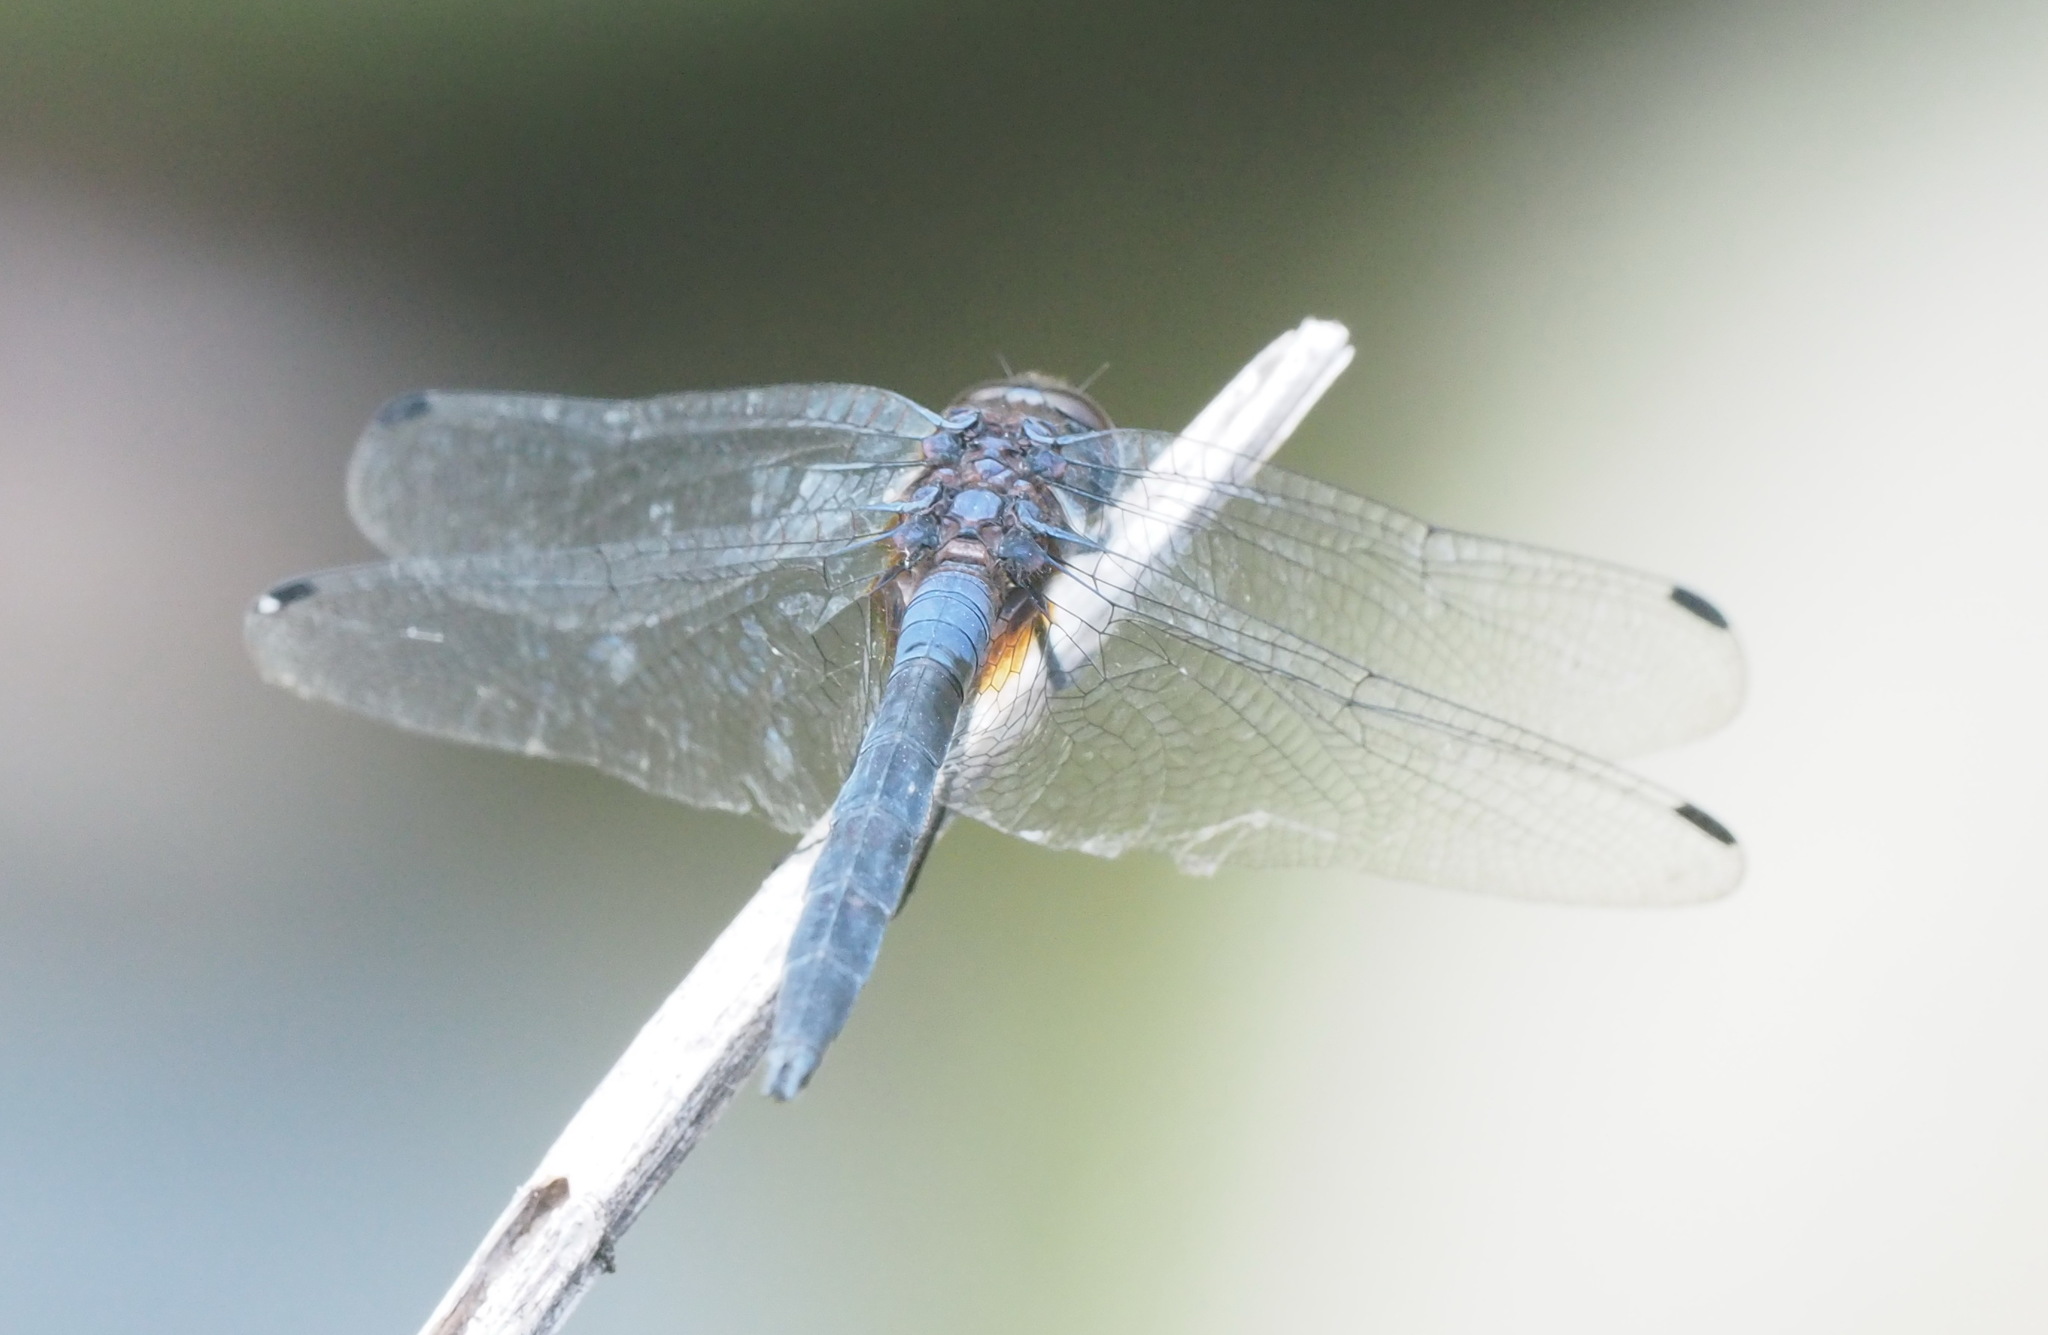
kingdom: Animalia
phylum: Arthropoda
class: Insecta
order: Odonata
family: Libellulidae
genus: Trithemis
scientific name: Trithemis festiva
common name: Indigo dropwing
